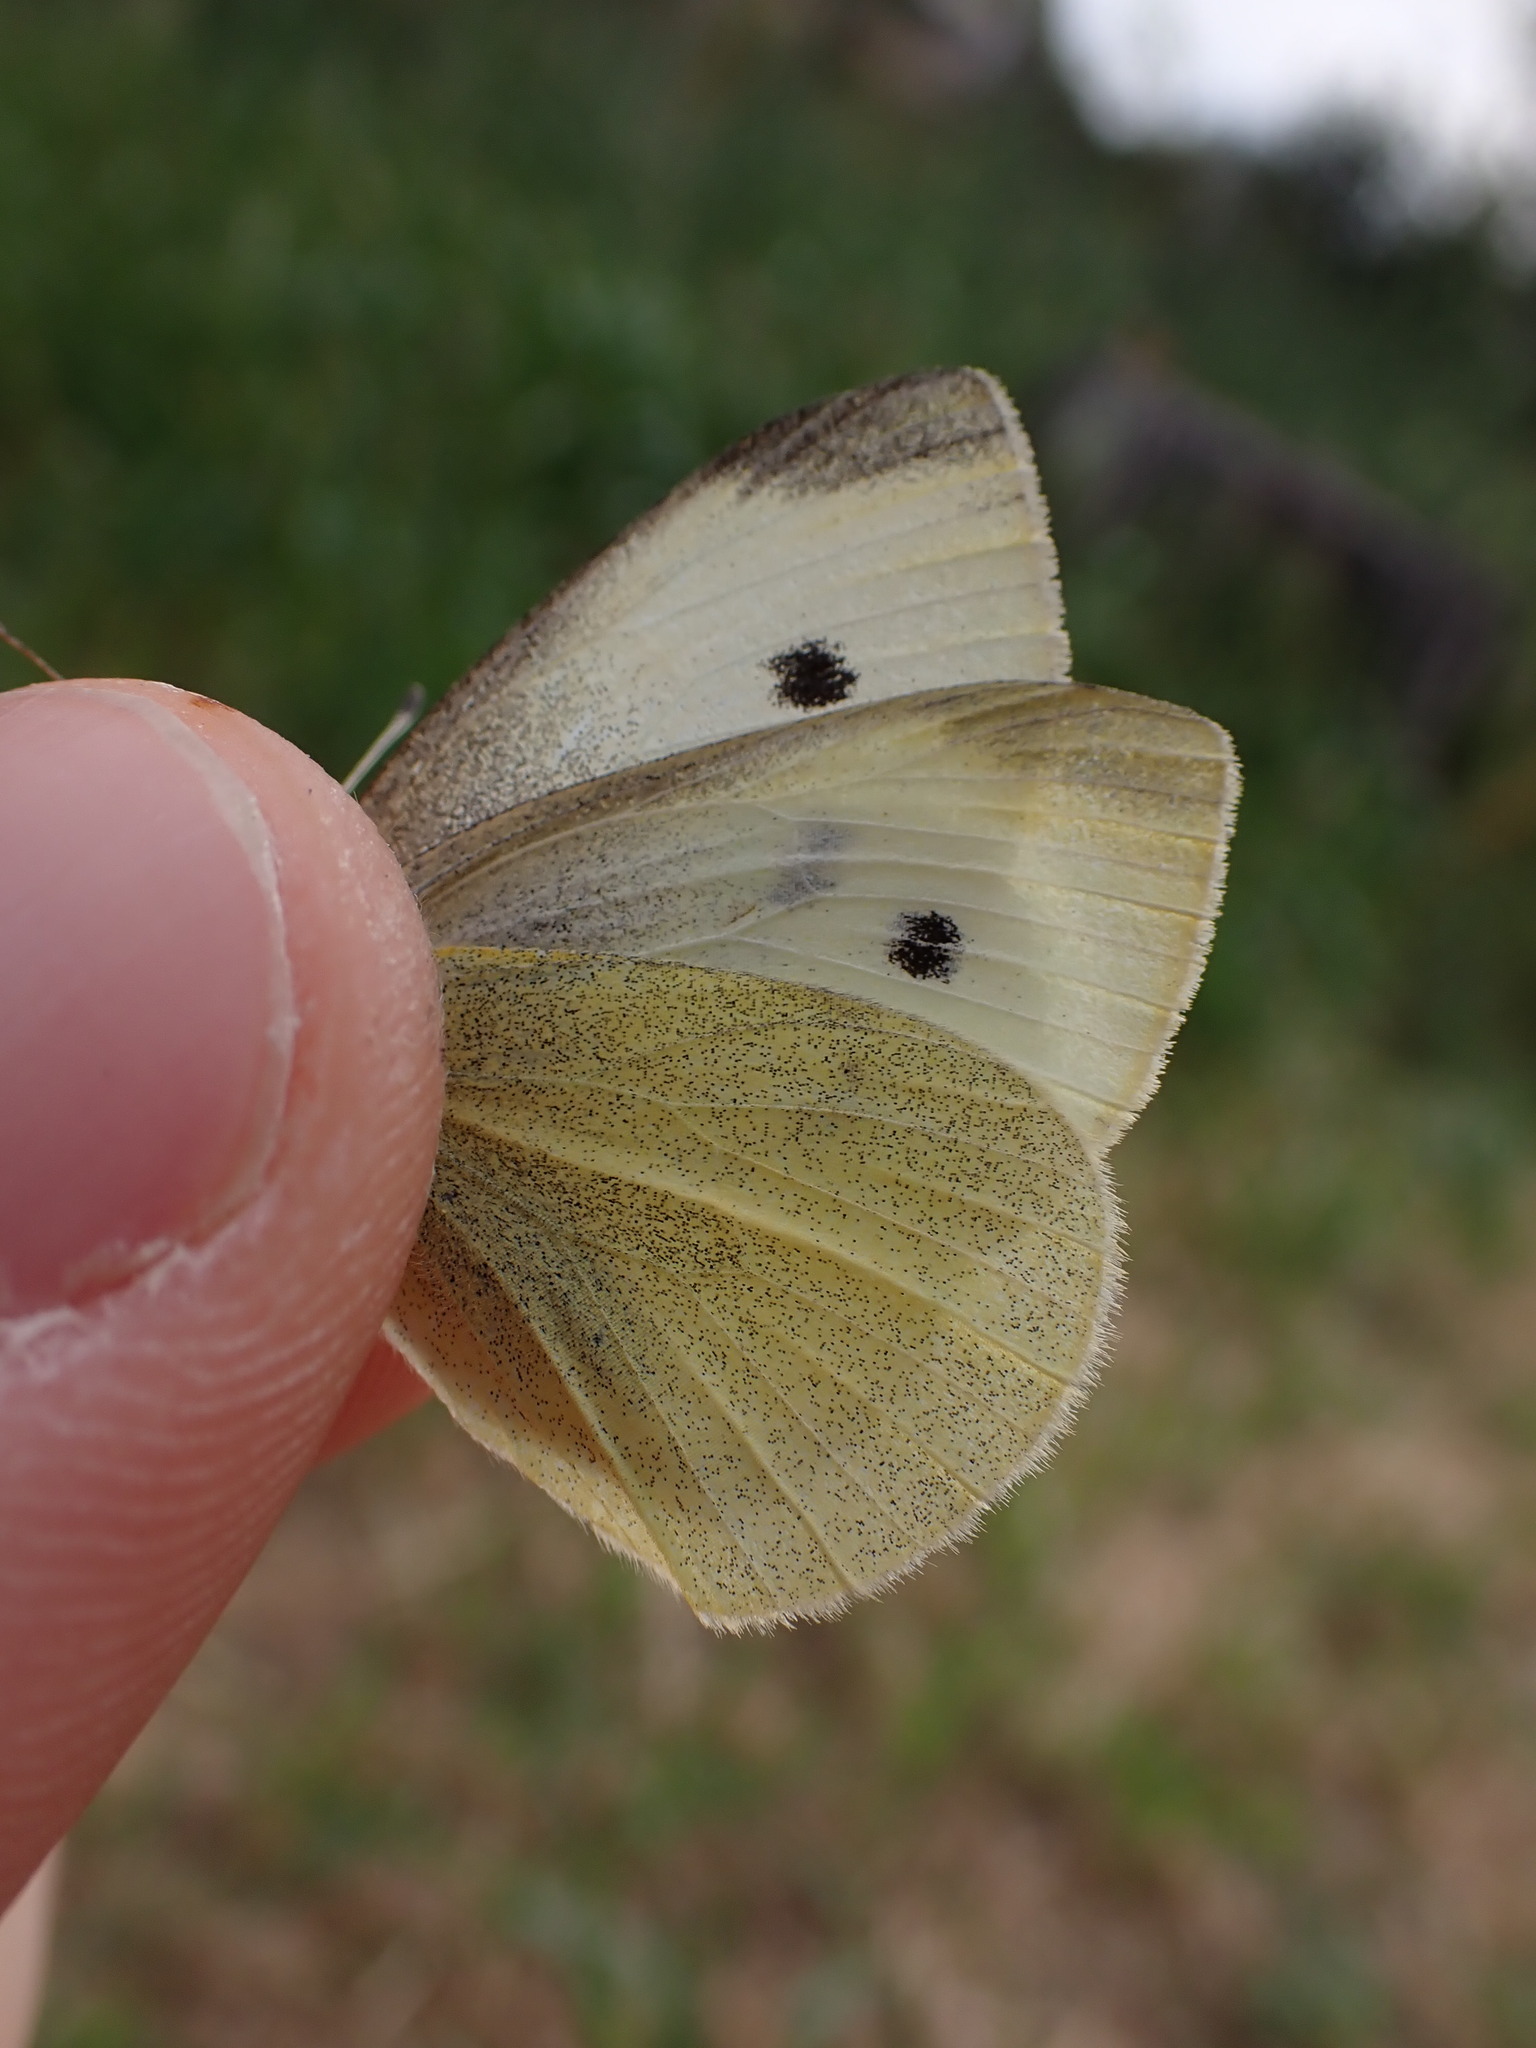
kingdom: Animalia
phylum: Arthropoda
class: Insecta
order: Lepidoptera
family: Pieridae
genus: Pieris
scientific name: Pieris rapae
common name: Small white
